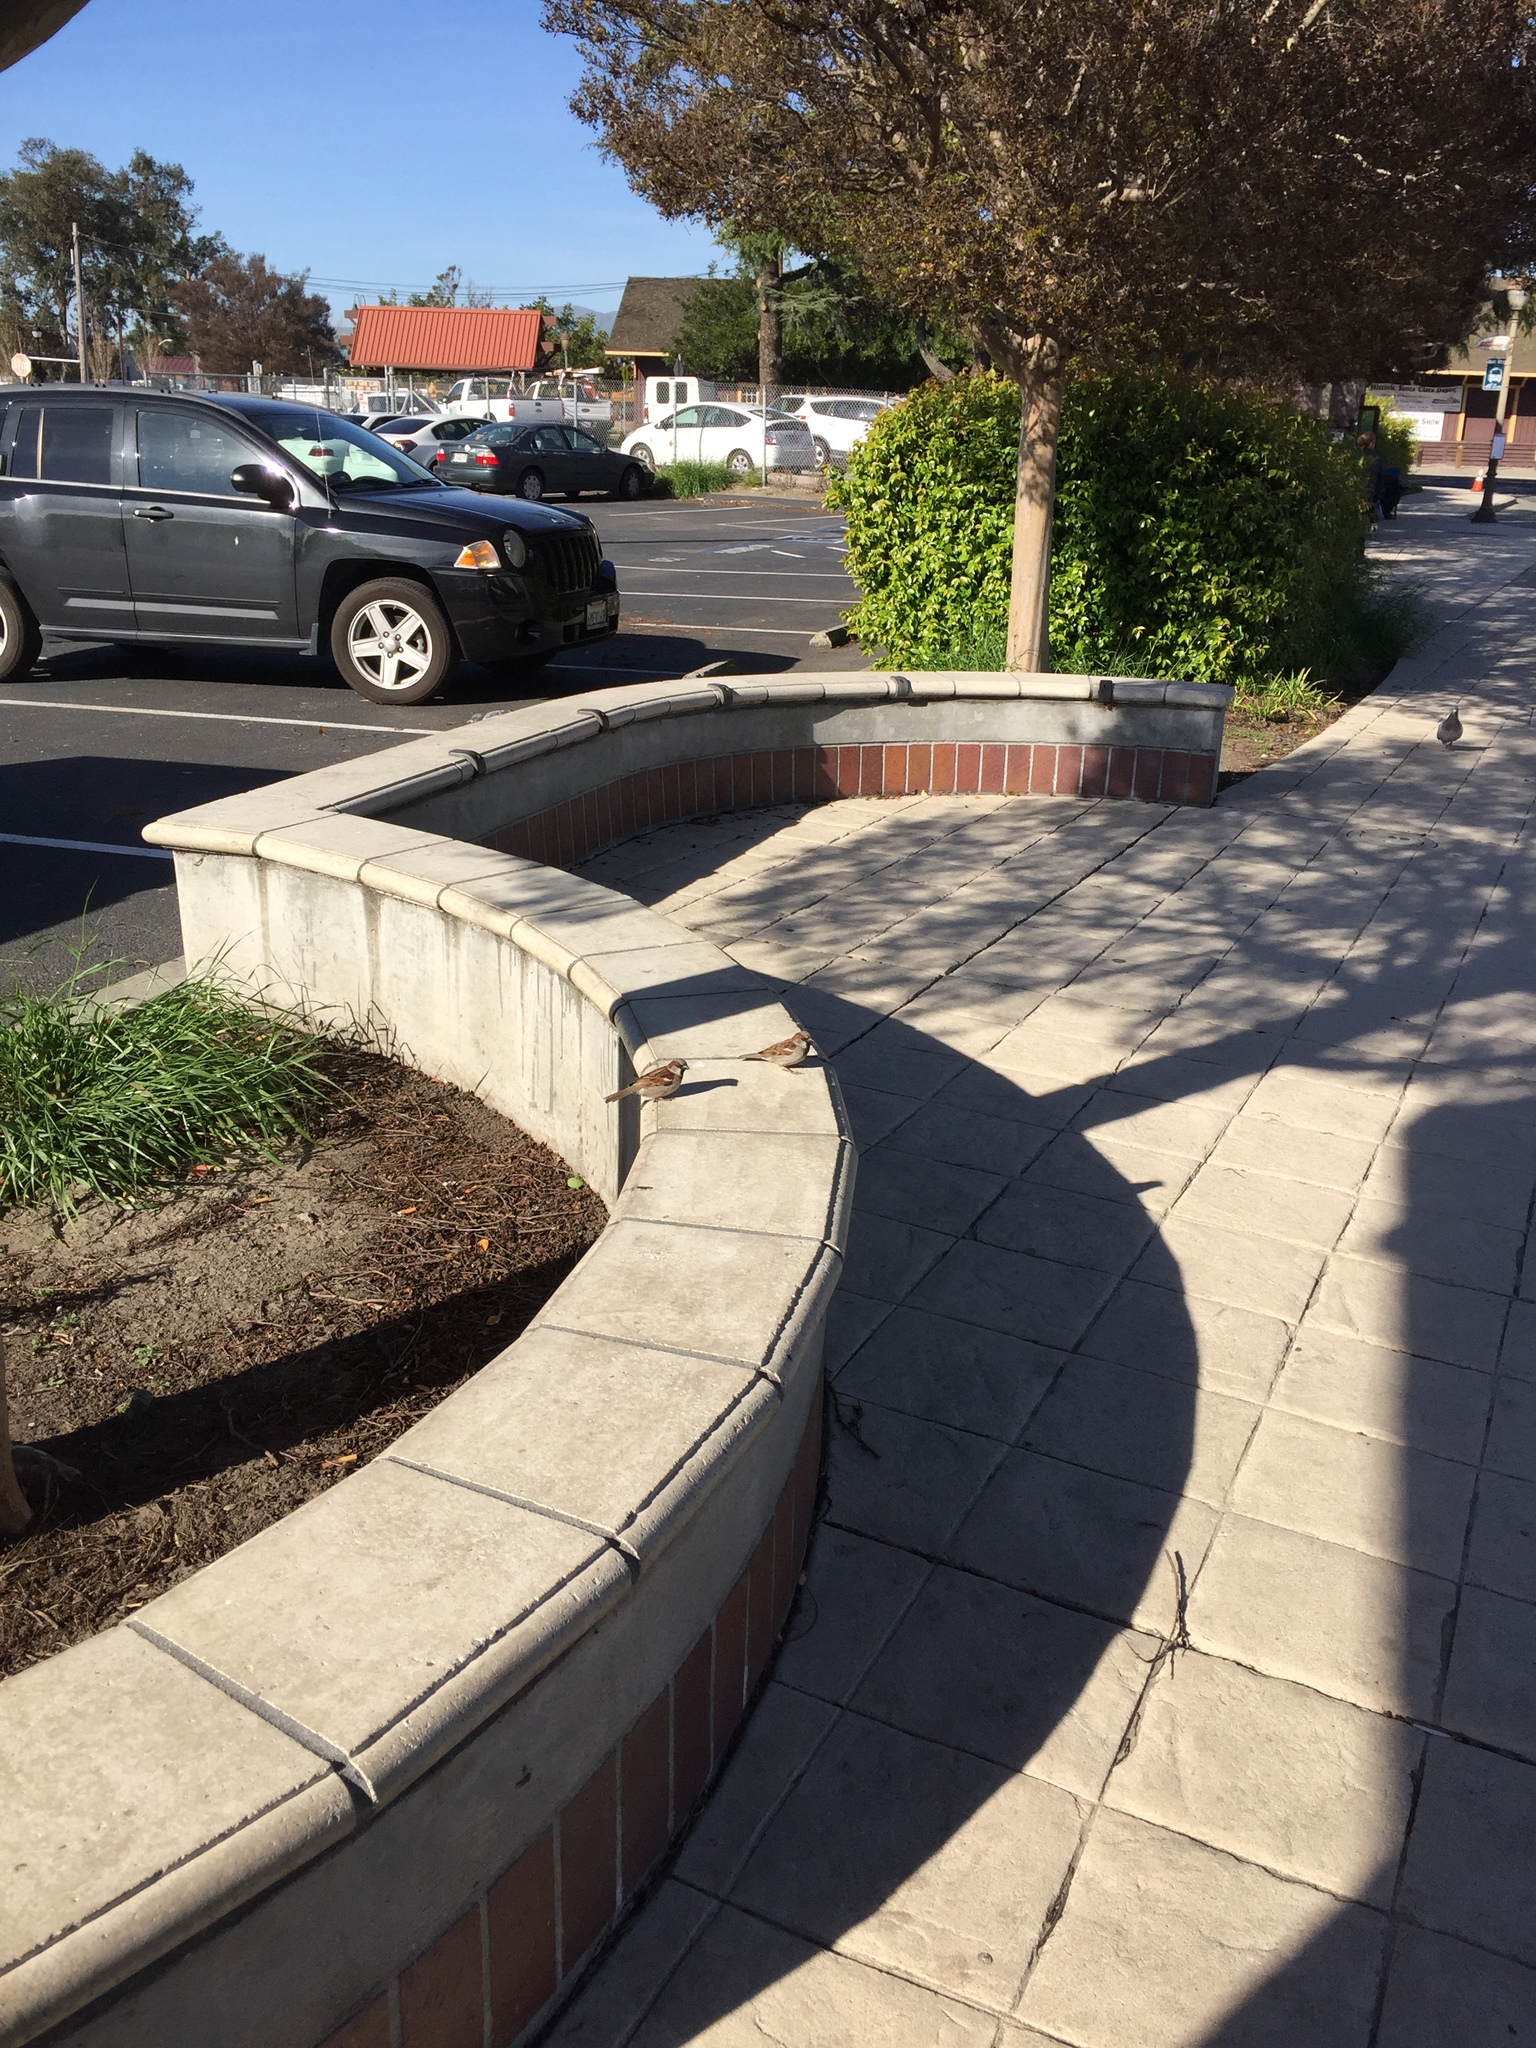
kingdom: Animalia
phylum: Chordata
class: Aves
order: Passeriformes
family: Passeridae
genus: Passer
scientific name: Passer domesticus
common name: House sparrow
